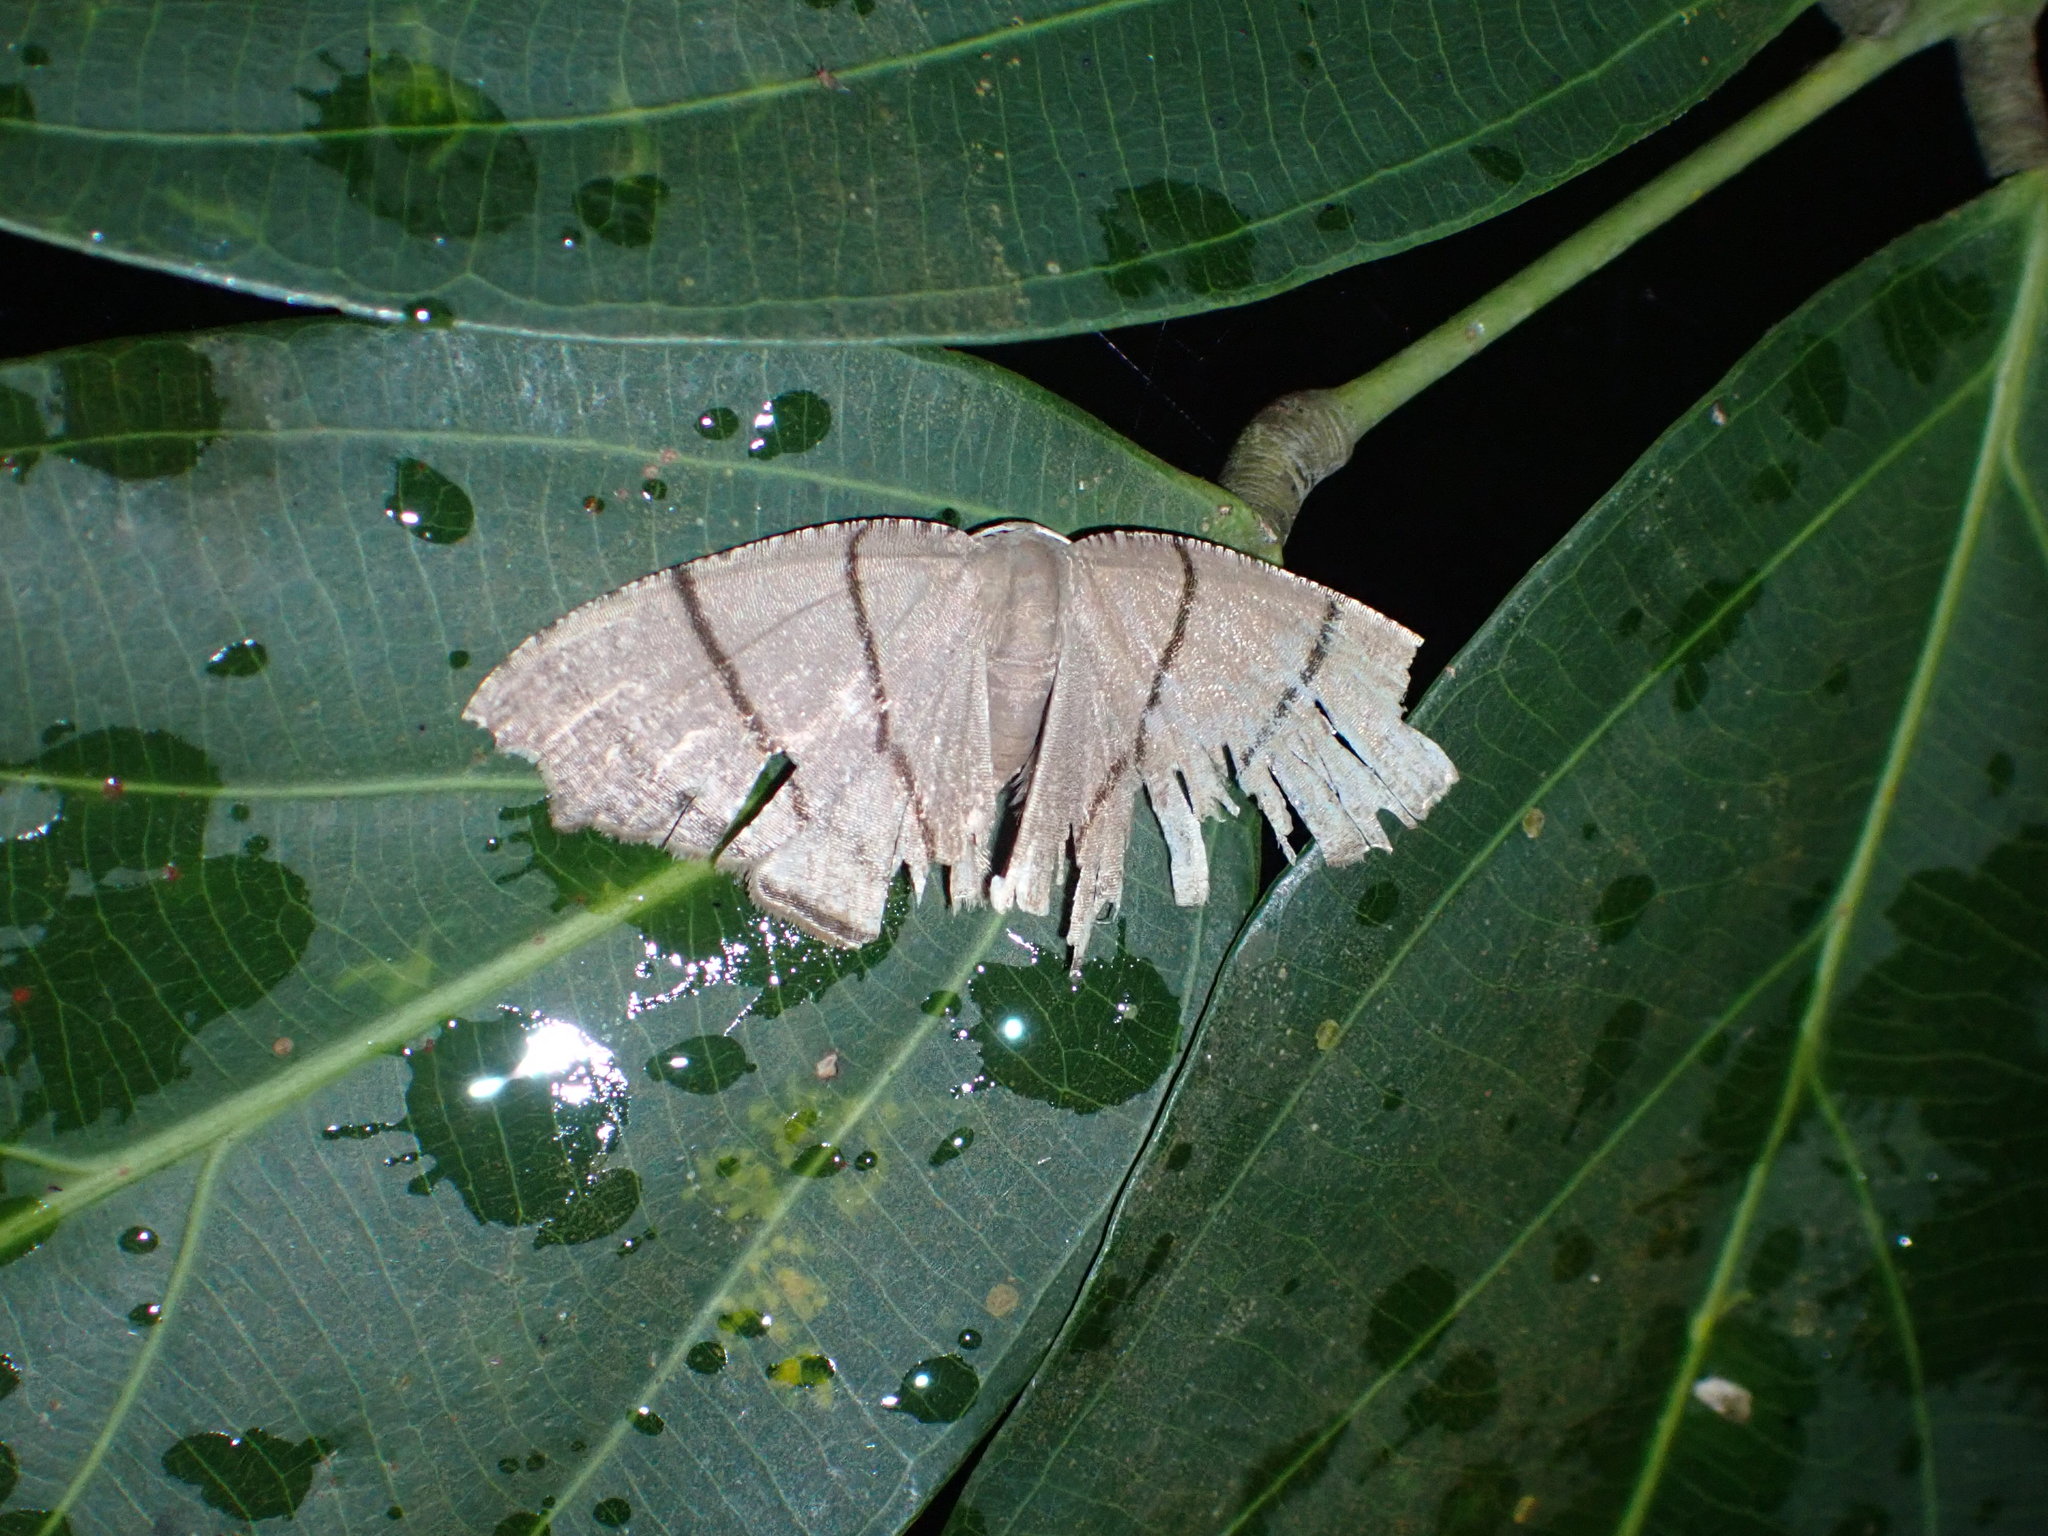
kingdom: Animalia
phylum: Arthropoda
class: Insecta
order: Lepidoptera
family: Uraniidae
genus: Orudiza
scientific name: Orudiza protheclaria
